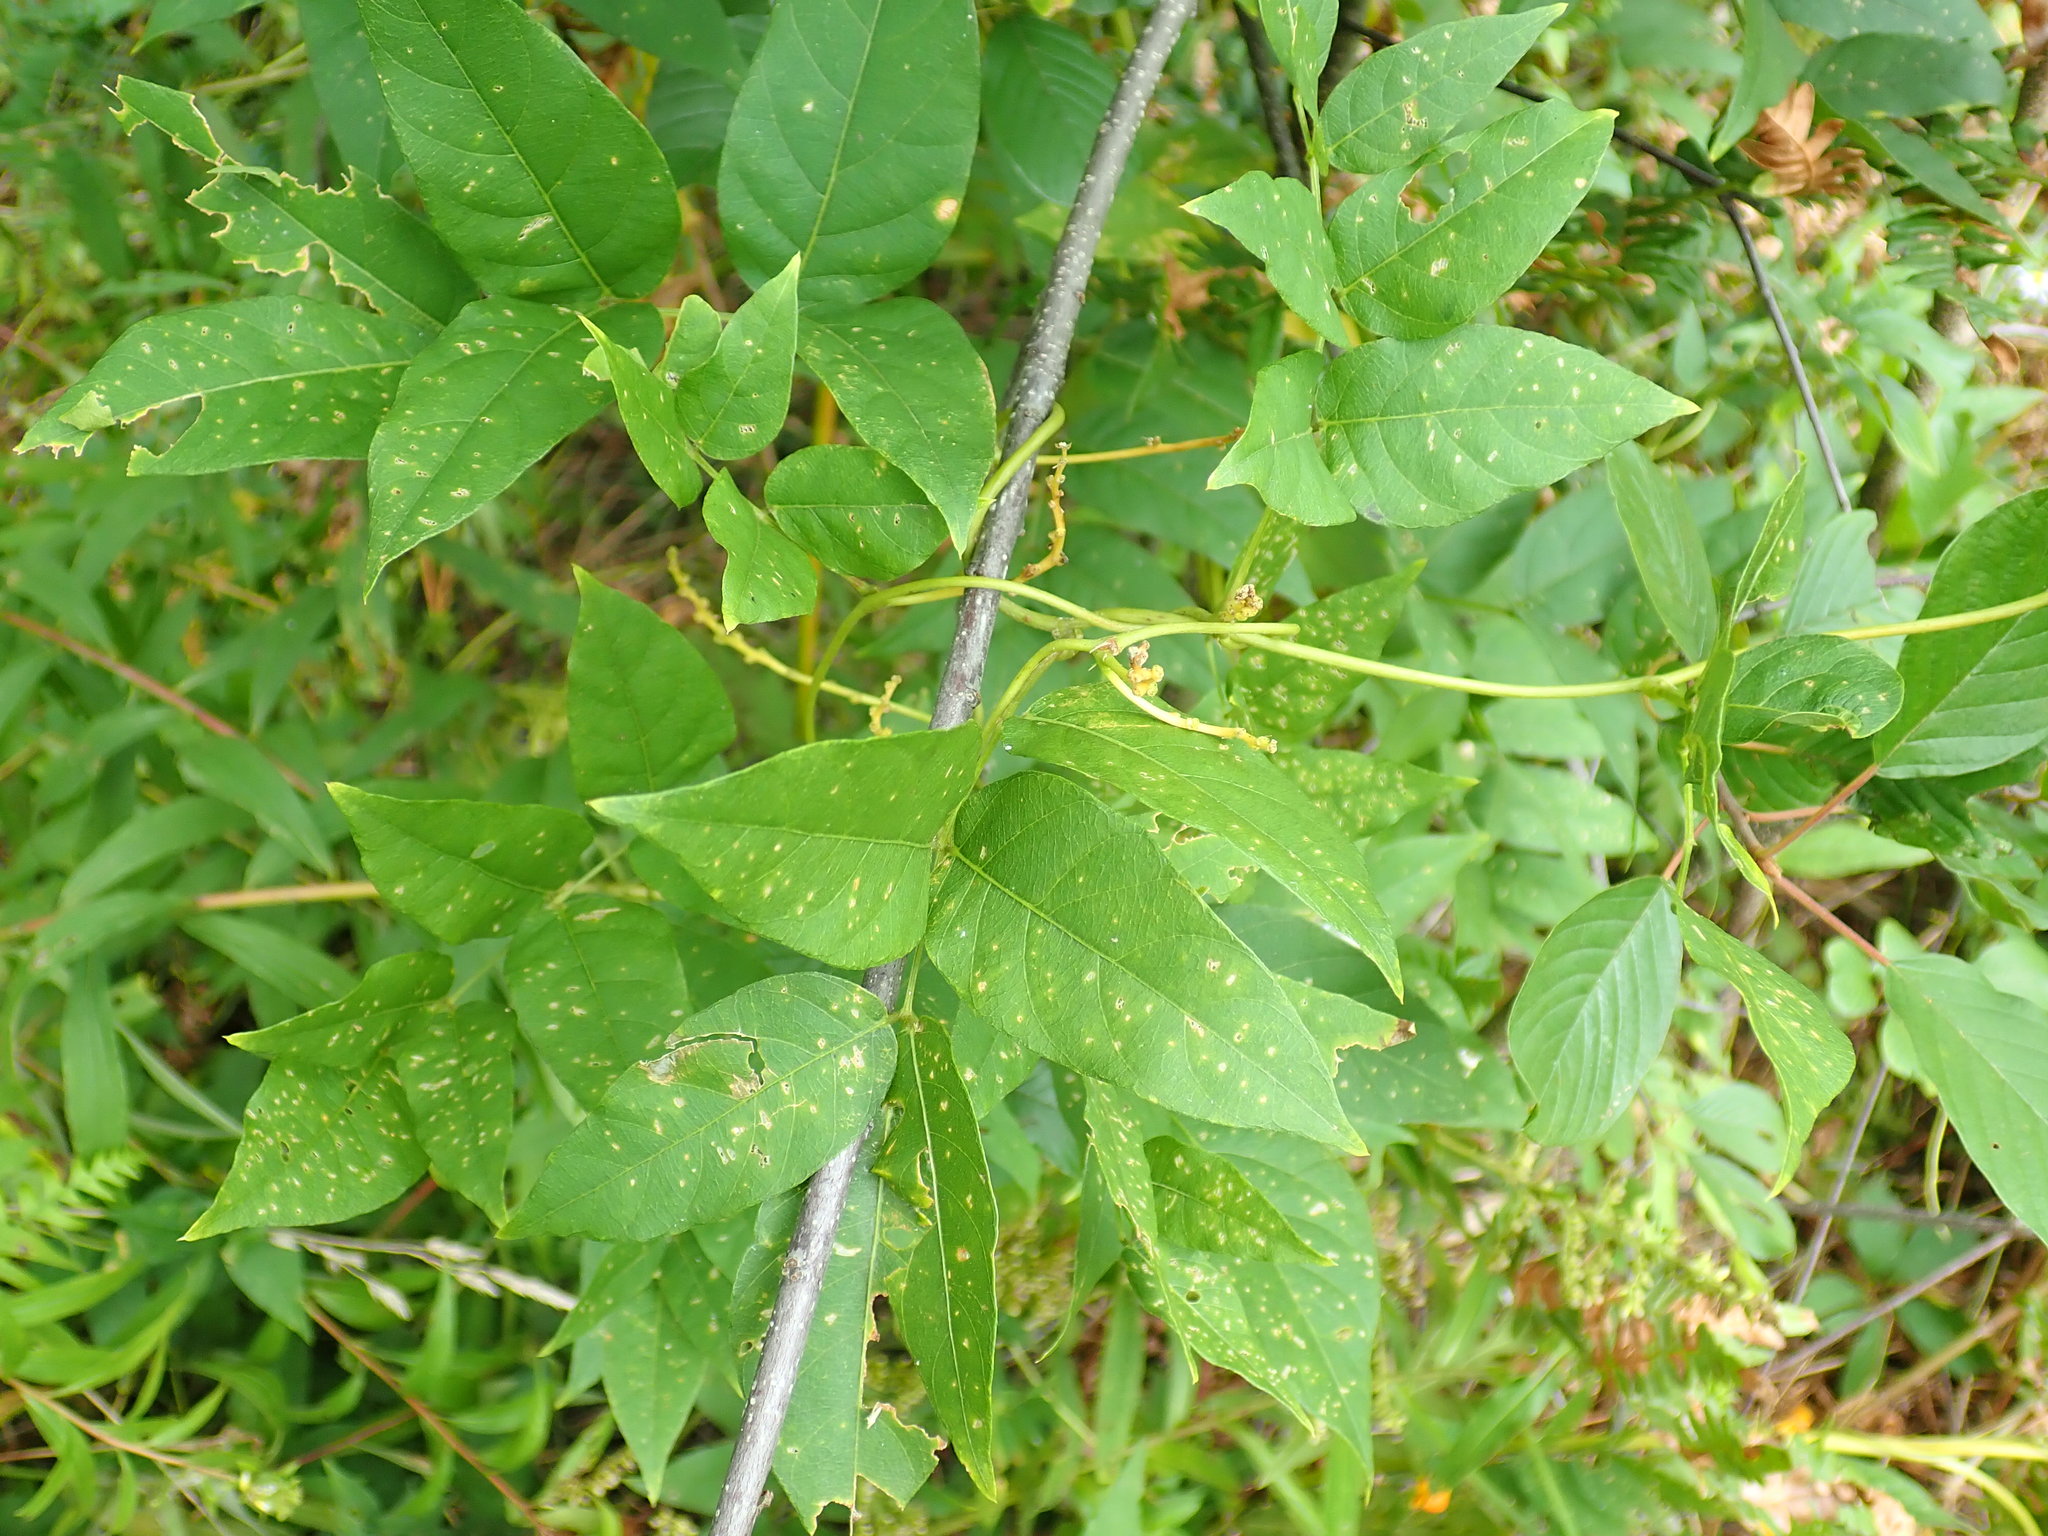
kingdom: Plantae
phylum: Tracheophyta
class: Magnoliopsida
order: Fabales
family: Fabaceae
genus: Apios
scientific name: Apios americana
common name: American potato-bean
